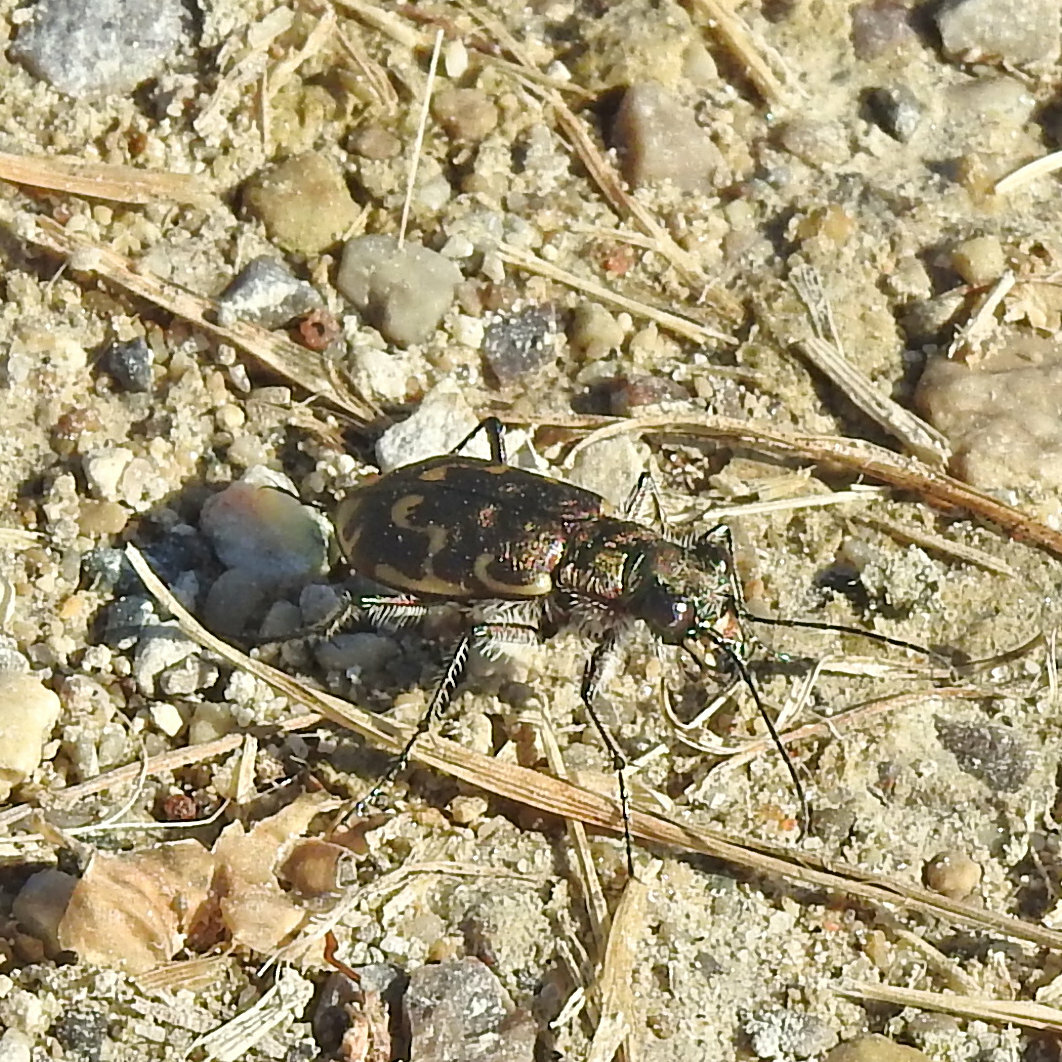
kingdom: Animalia
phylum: Arthropoda
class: Insecta
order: Coleoptera
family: Carabidae
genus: Cicindela
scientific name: Cicindela repanda
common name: Bronzed tiger beetle
